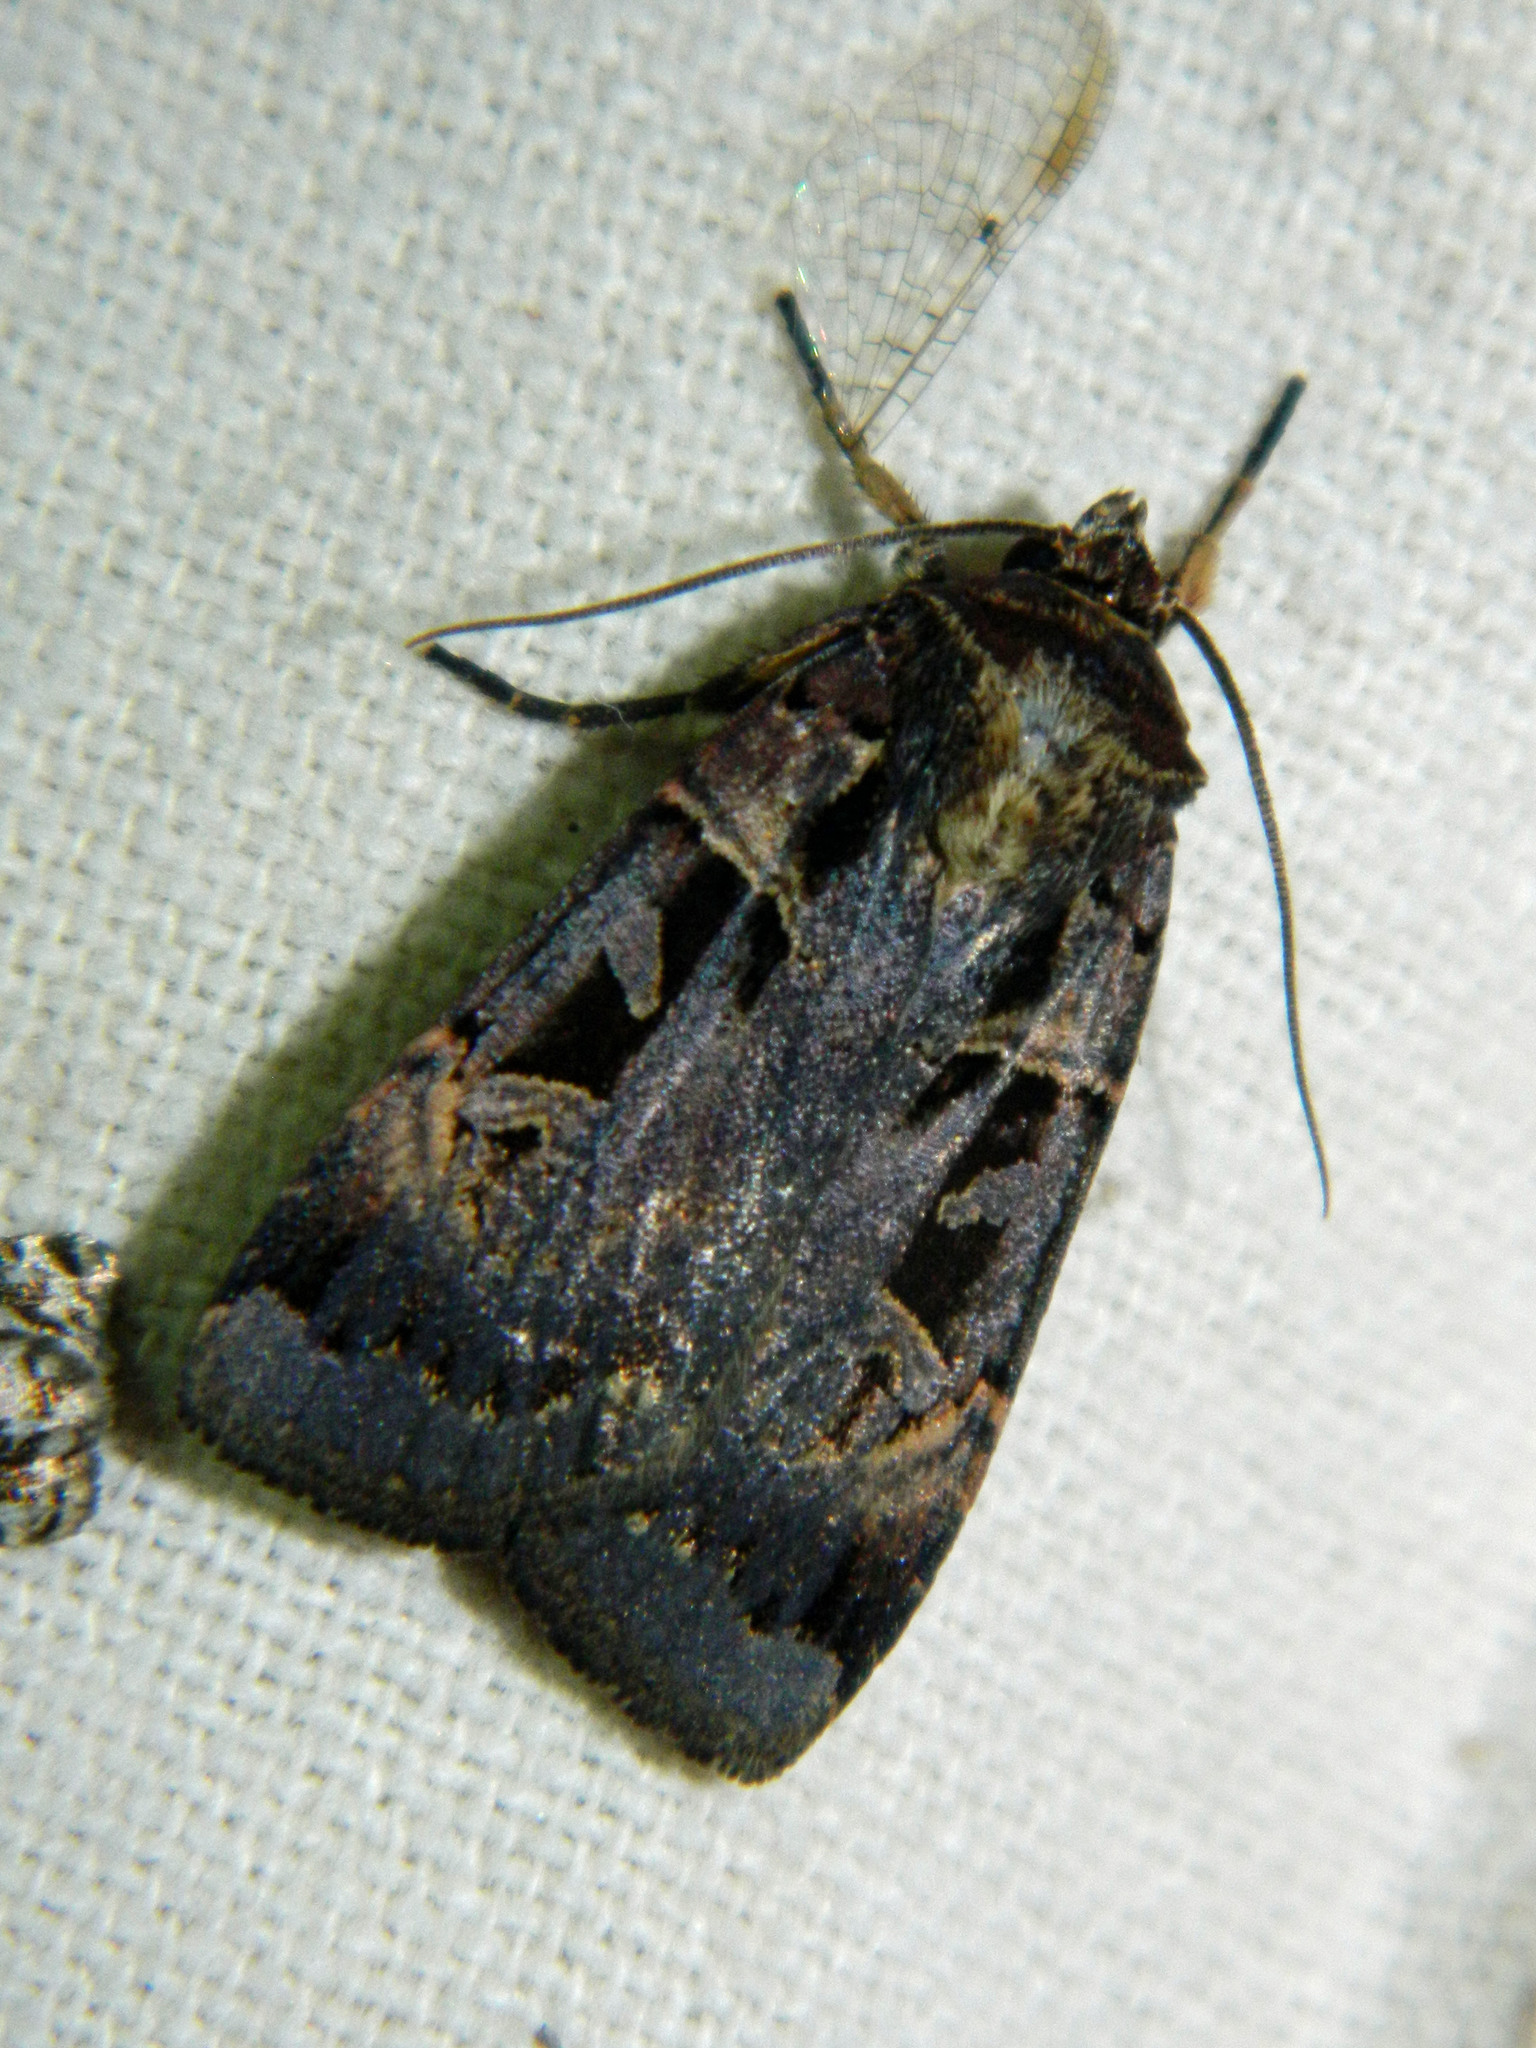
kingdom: Animalia
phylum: Arthropoda
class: Insecta
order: Lepidoptera
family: Noctuidae
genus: Pseudohermonassa
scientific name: Pseudohermonassa bicarnea
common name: Pink spotted dart
